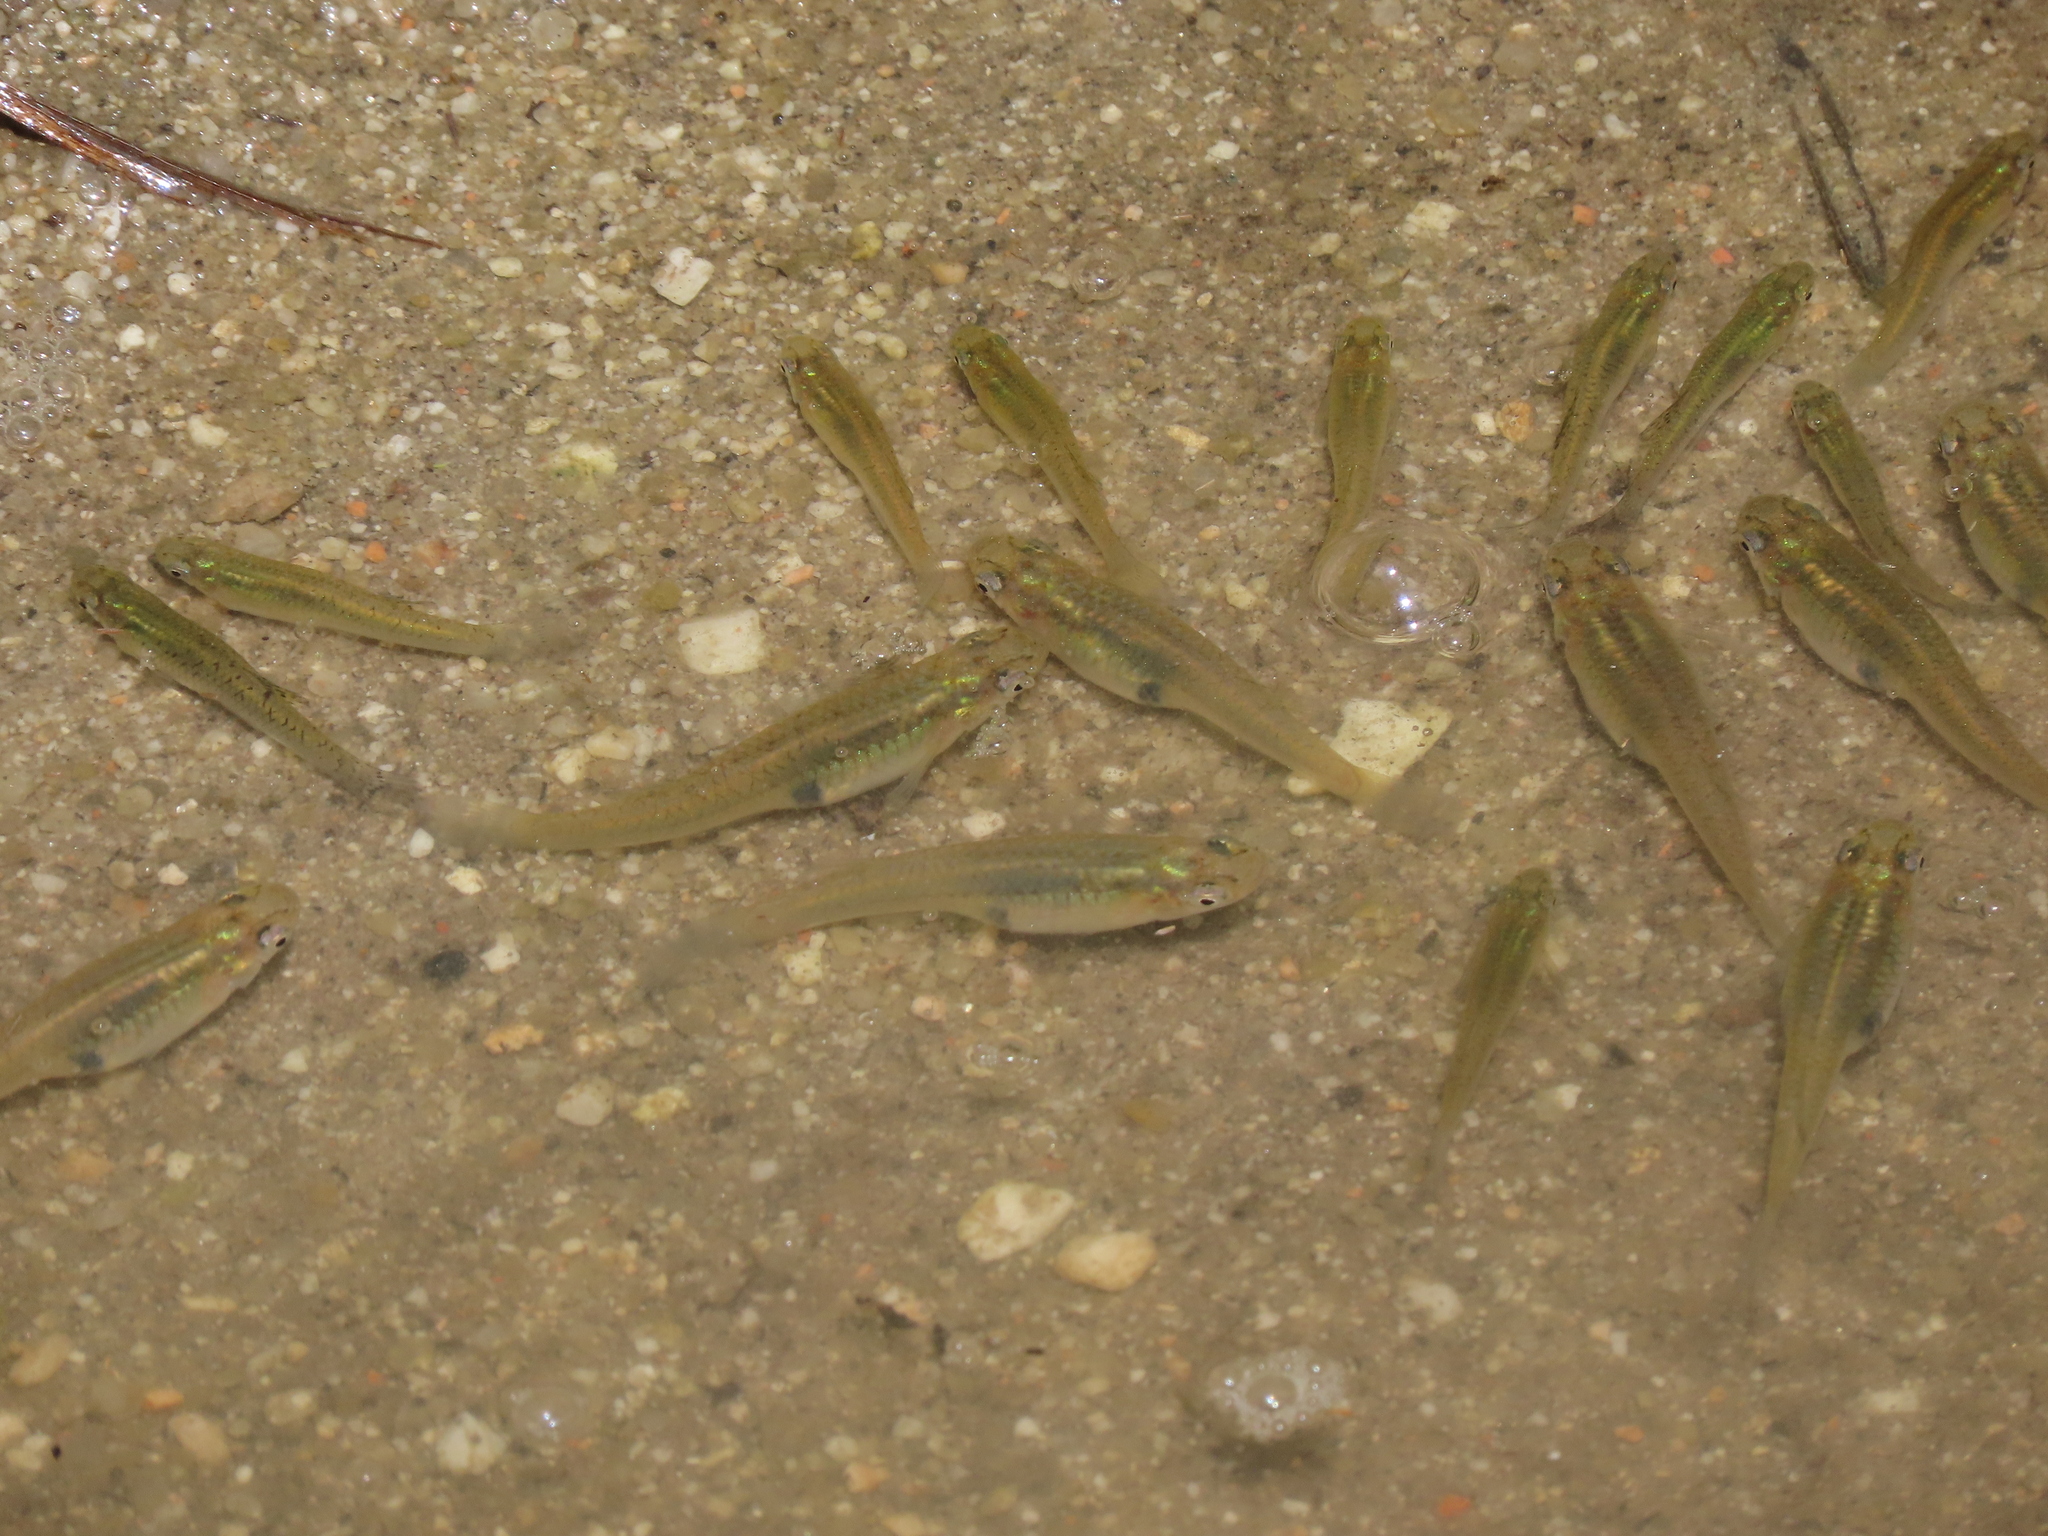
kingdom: Animalia
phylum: Chordata
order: Cyprinodontiformes
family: Poeciliidae
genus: Gambusia
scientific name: Gambusia holbrooki
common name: Eastern mosquitofish
